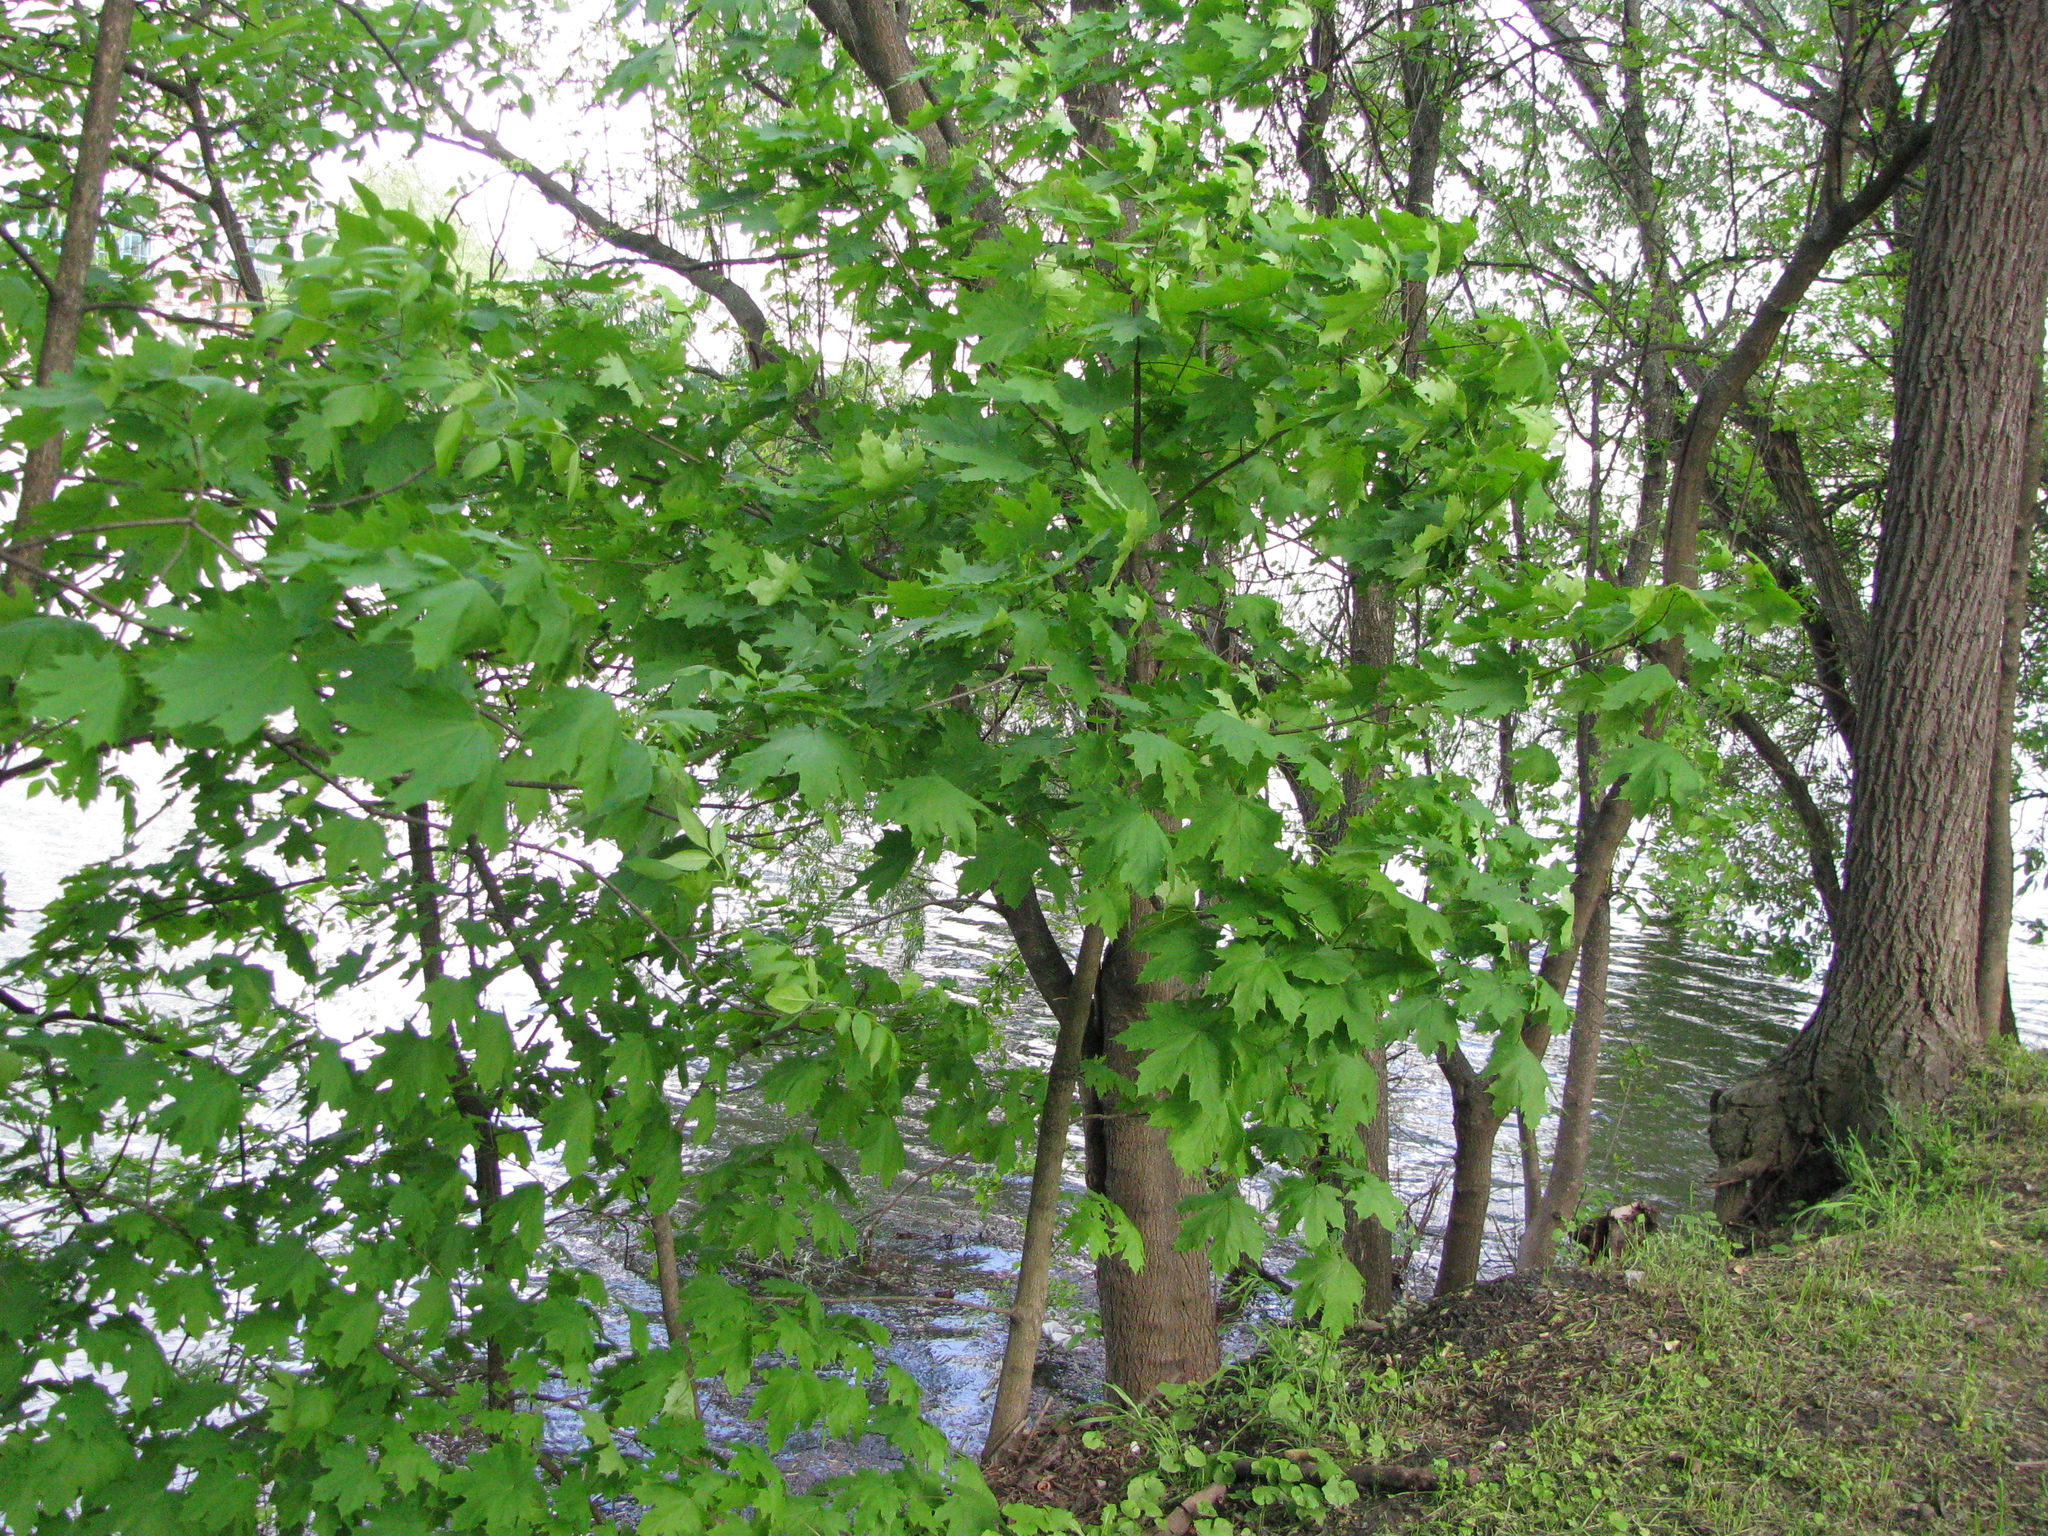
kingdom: Plantae
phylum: Tracheophyta
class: Magnoliopsida
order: Sapindales
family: Sapindaceae
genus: Acer
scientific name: Acer platanoides
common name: Norway maple
